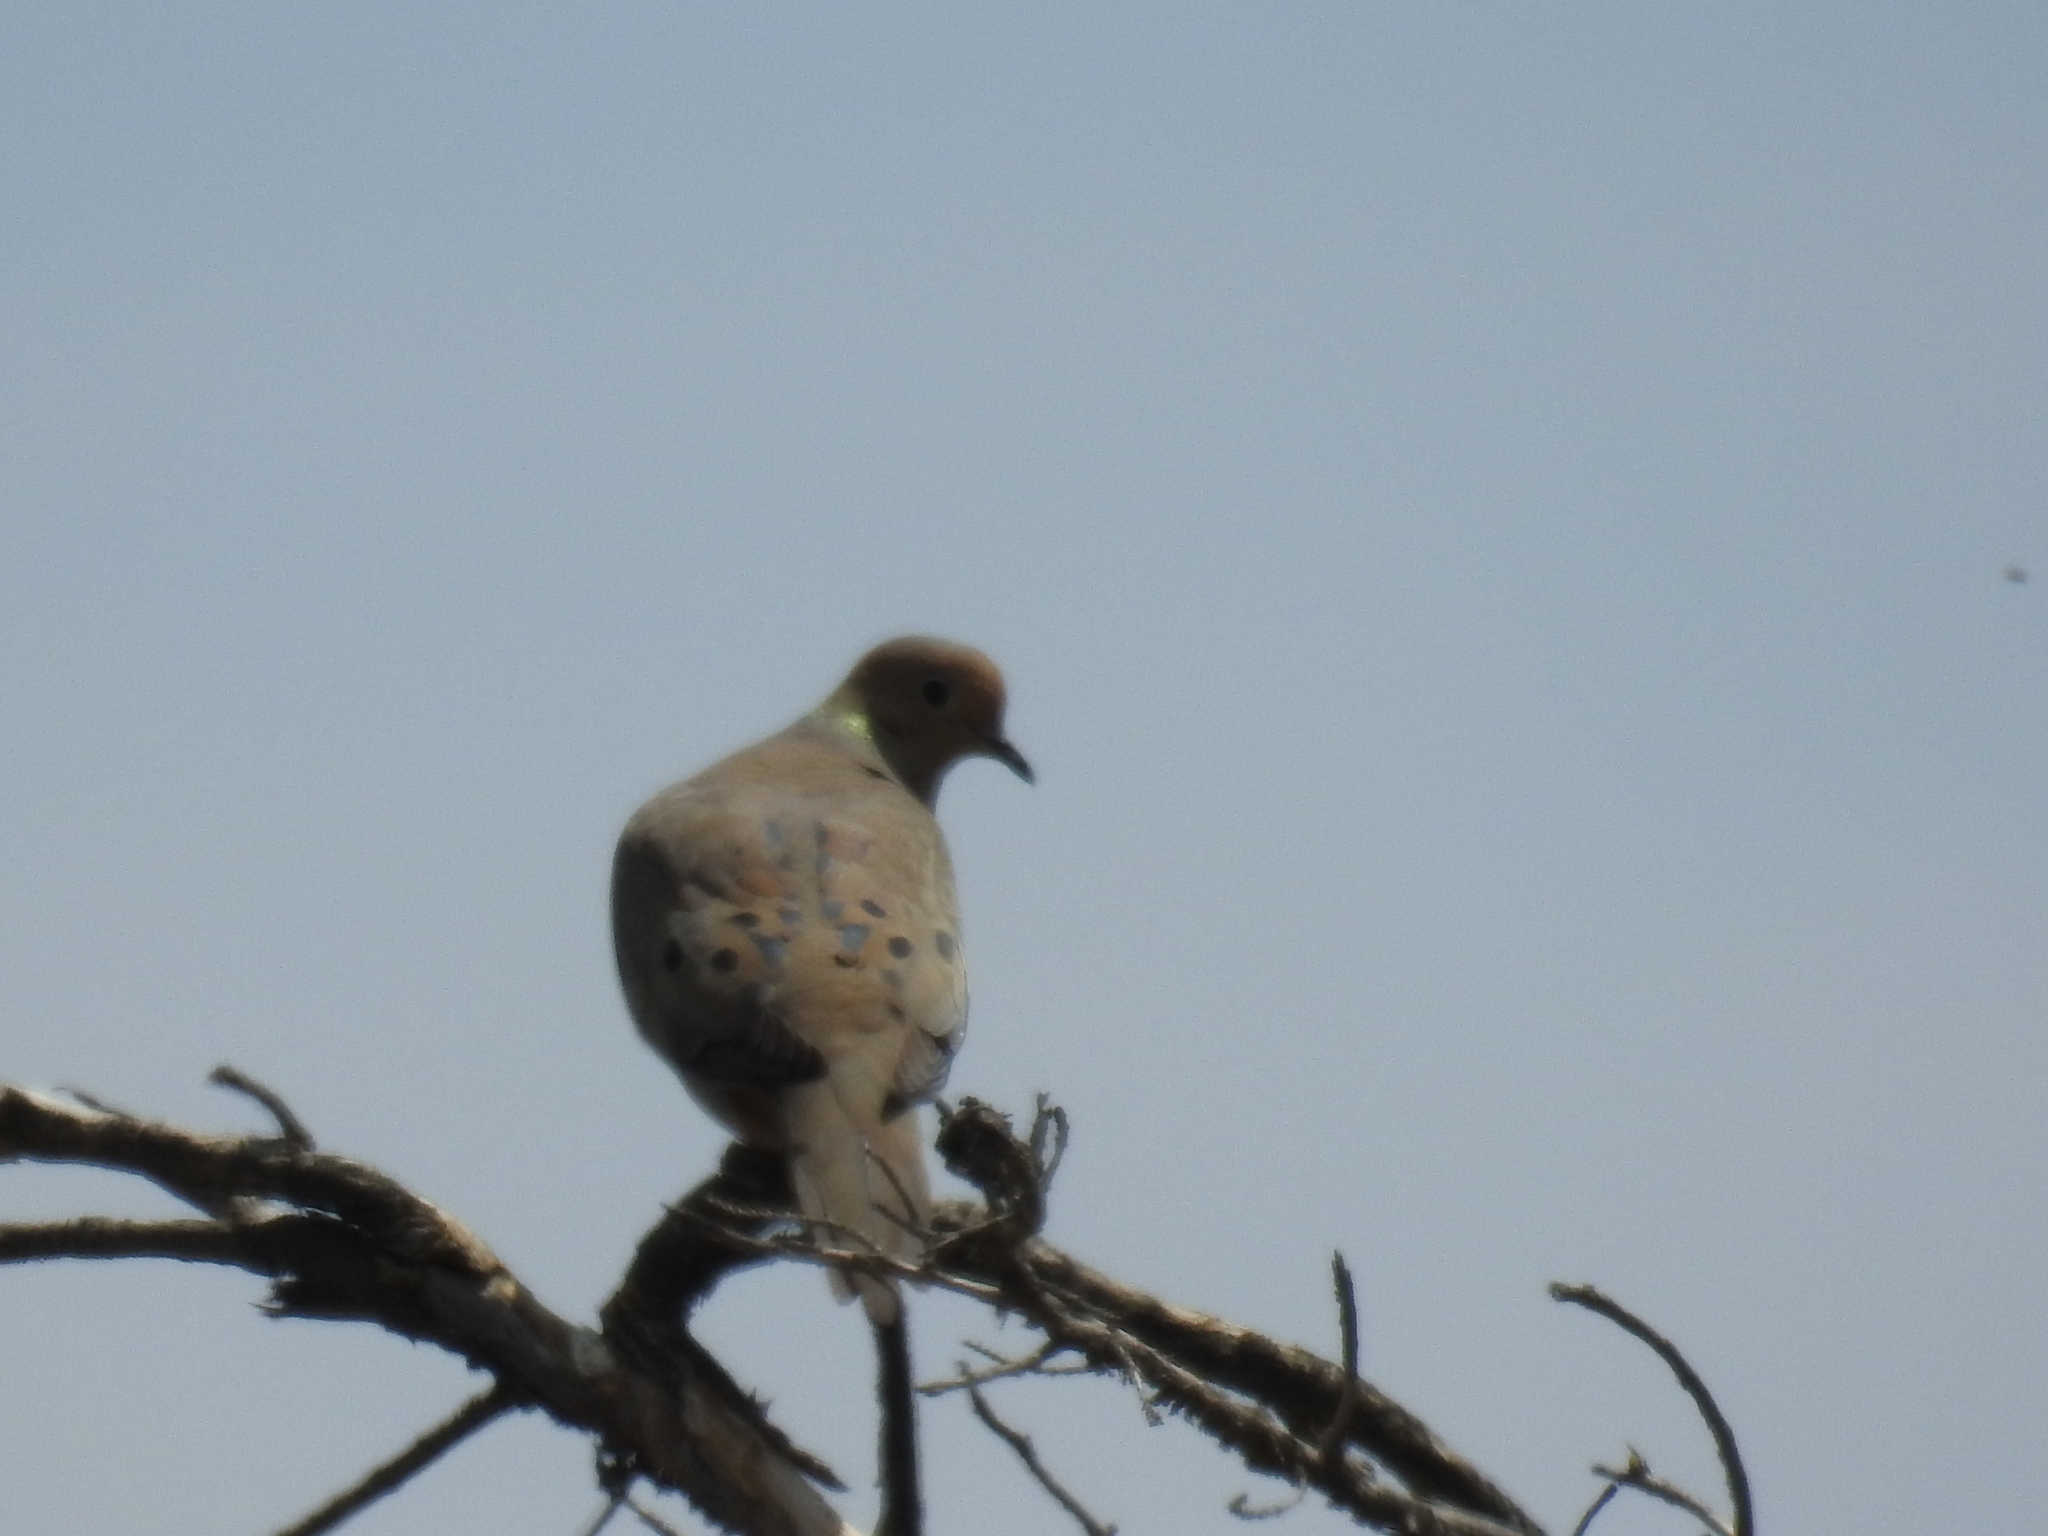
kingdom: Animalia
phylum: Chordata
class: Aves
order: Columbiformes
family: Columbidae
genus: Zenaida
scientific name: Zenaida macroura
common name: Mourning dove
